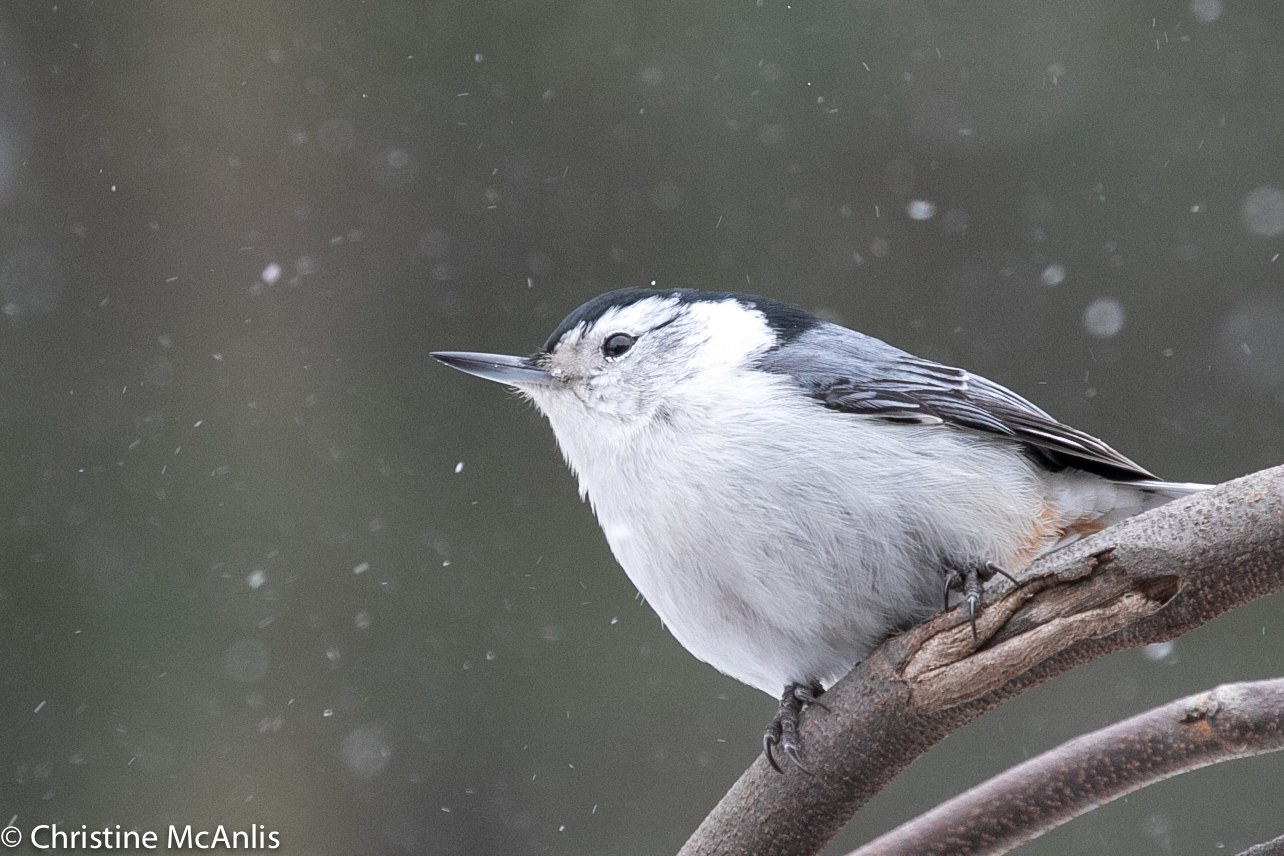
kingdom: Animalia
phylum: Chordata
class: Aves
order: Passeriformes
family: Sittidae
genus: Sitta
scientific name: Sitta carolinensis
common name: White-breasted nuthatch
